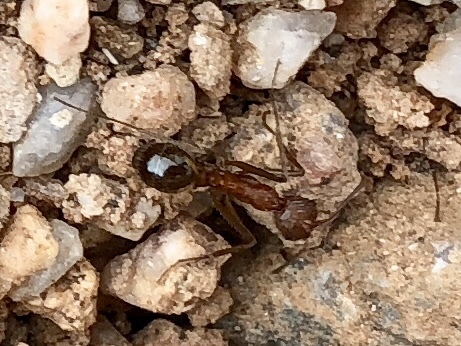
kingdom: Animalia
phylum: Arthropoda
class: Insecta
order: Hymenoptera
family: Formicidae
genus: Novomessor
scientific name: Novomessor albisetosa
